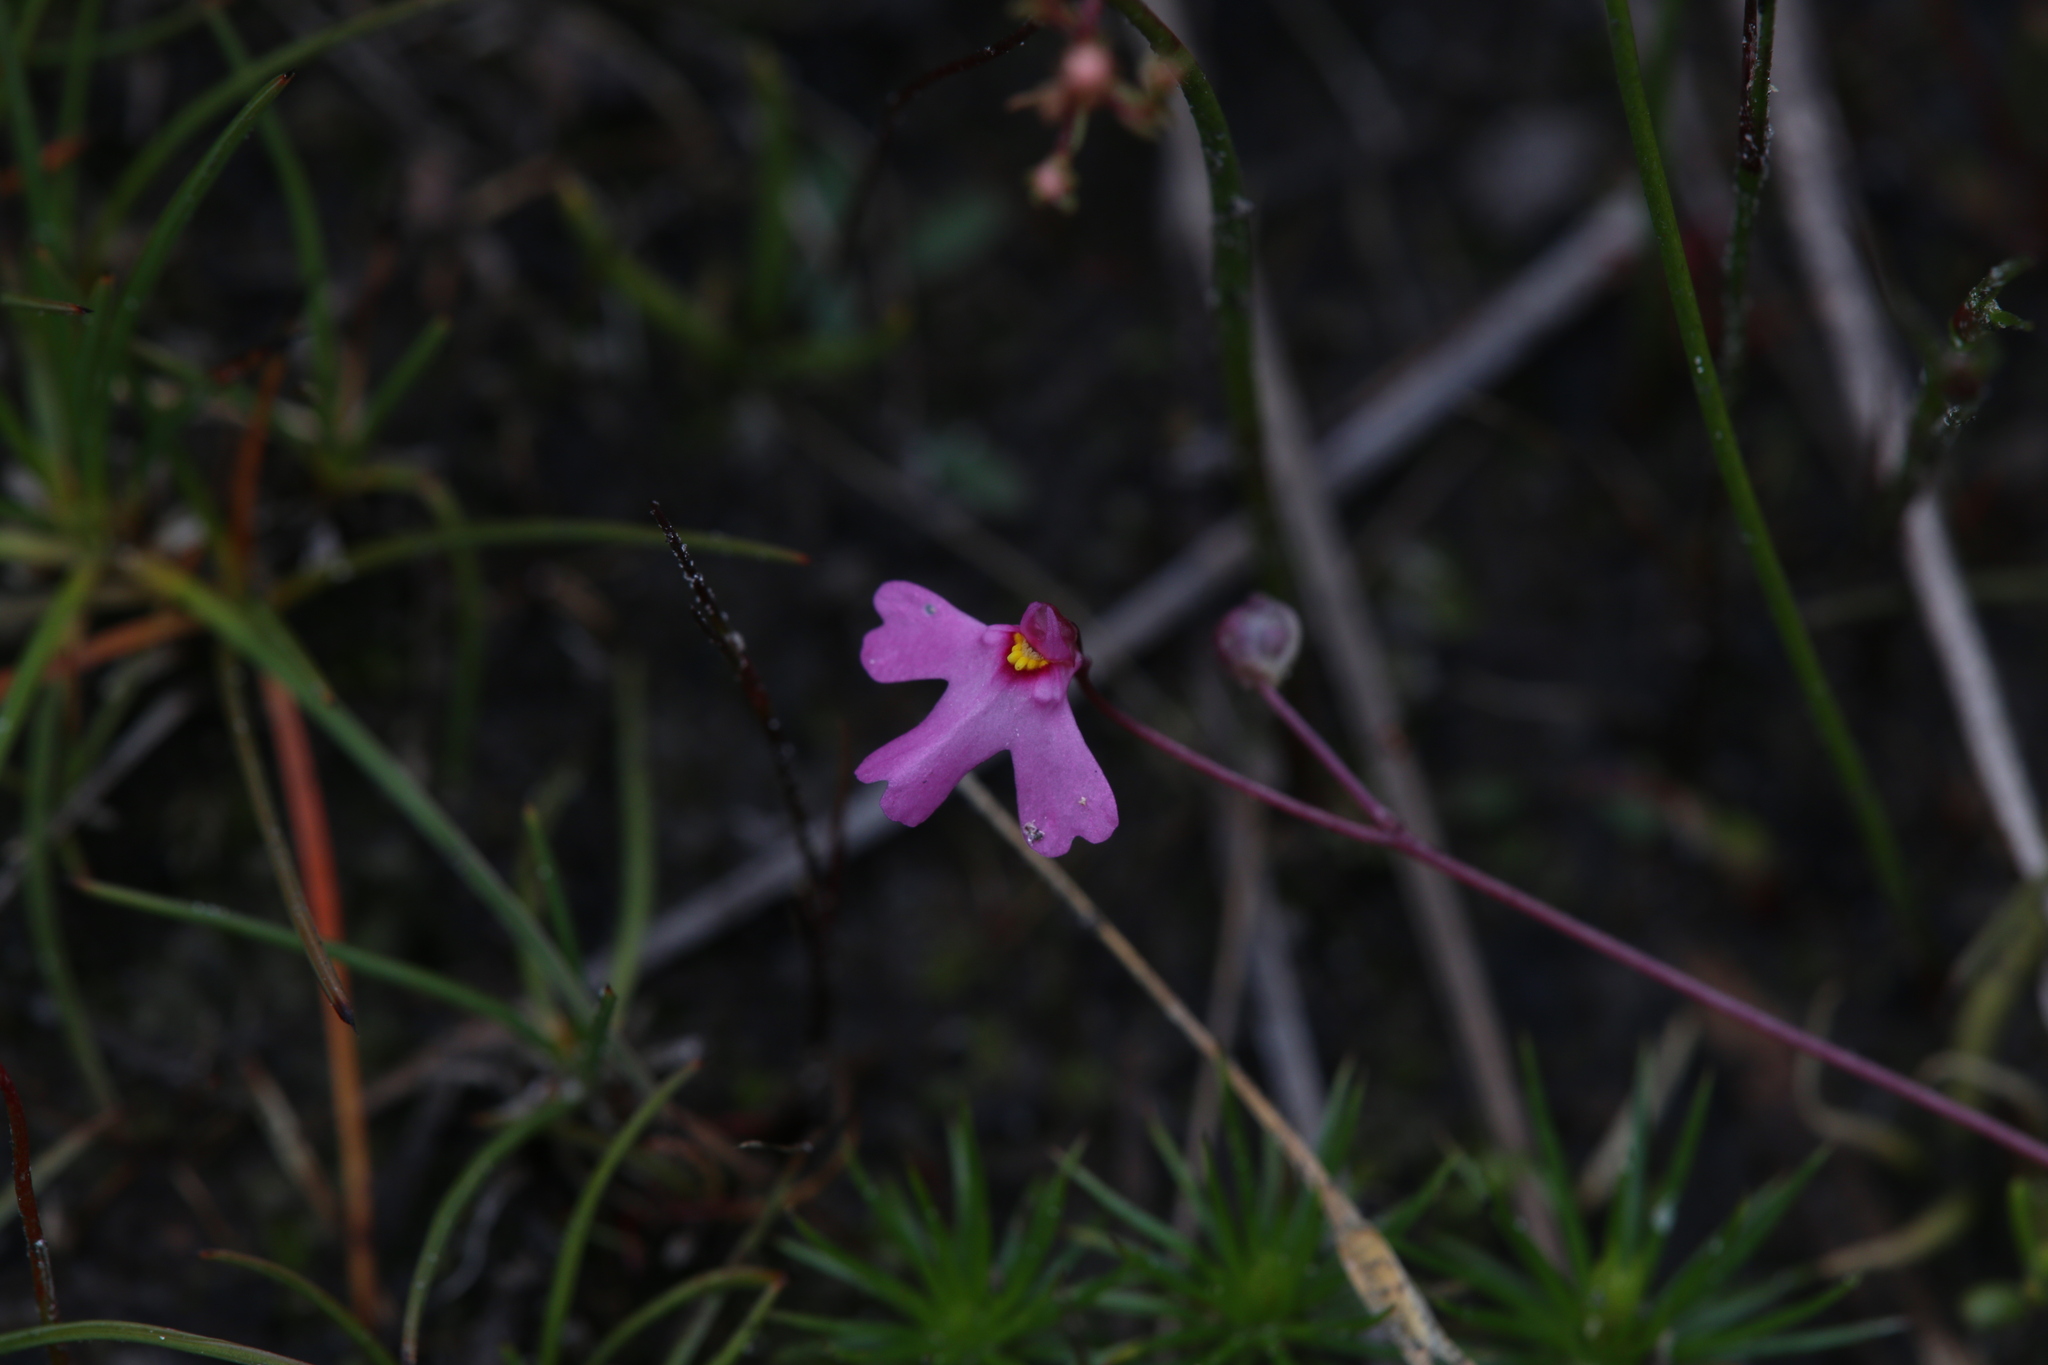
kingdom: Plantae
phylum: Tracheophyta
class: Magnoliopsida
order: Lamiales
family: Lentibulariaceae
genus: Utricularia
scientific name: Utricularia multifida
